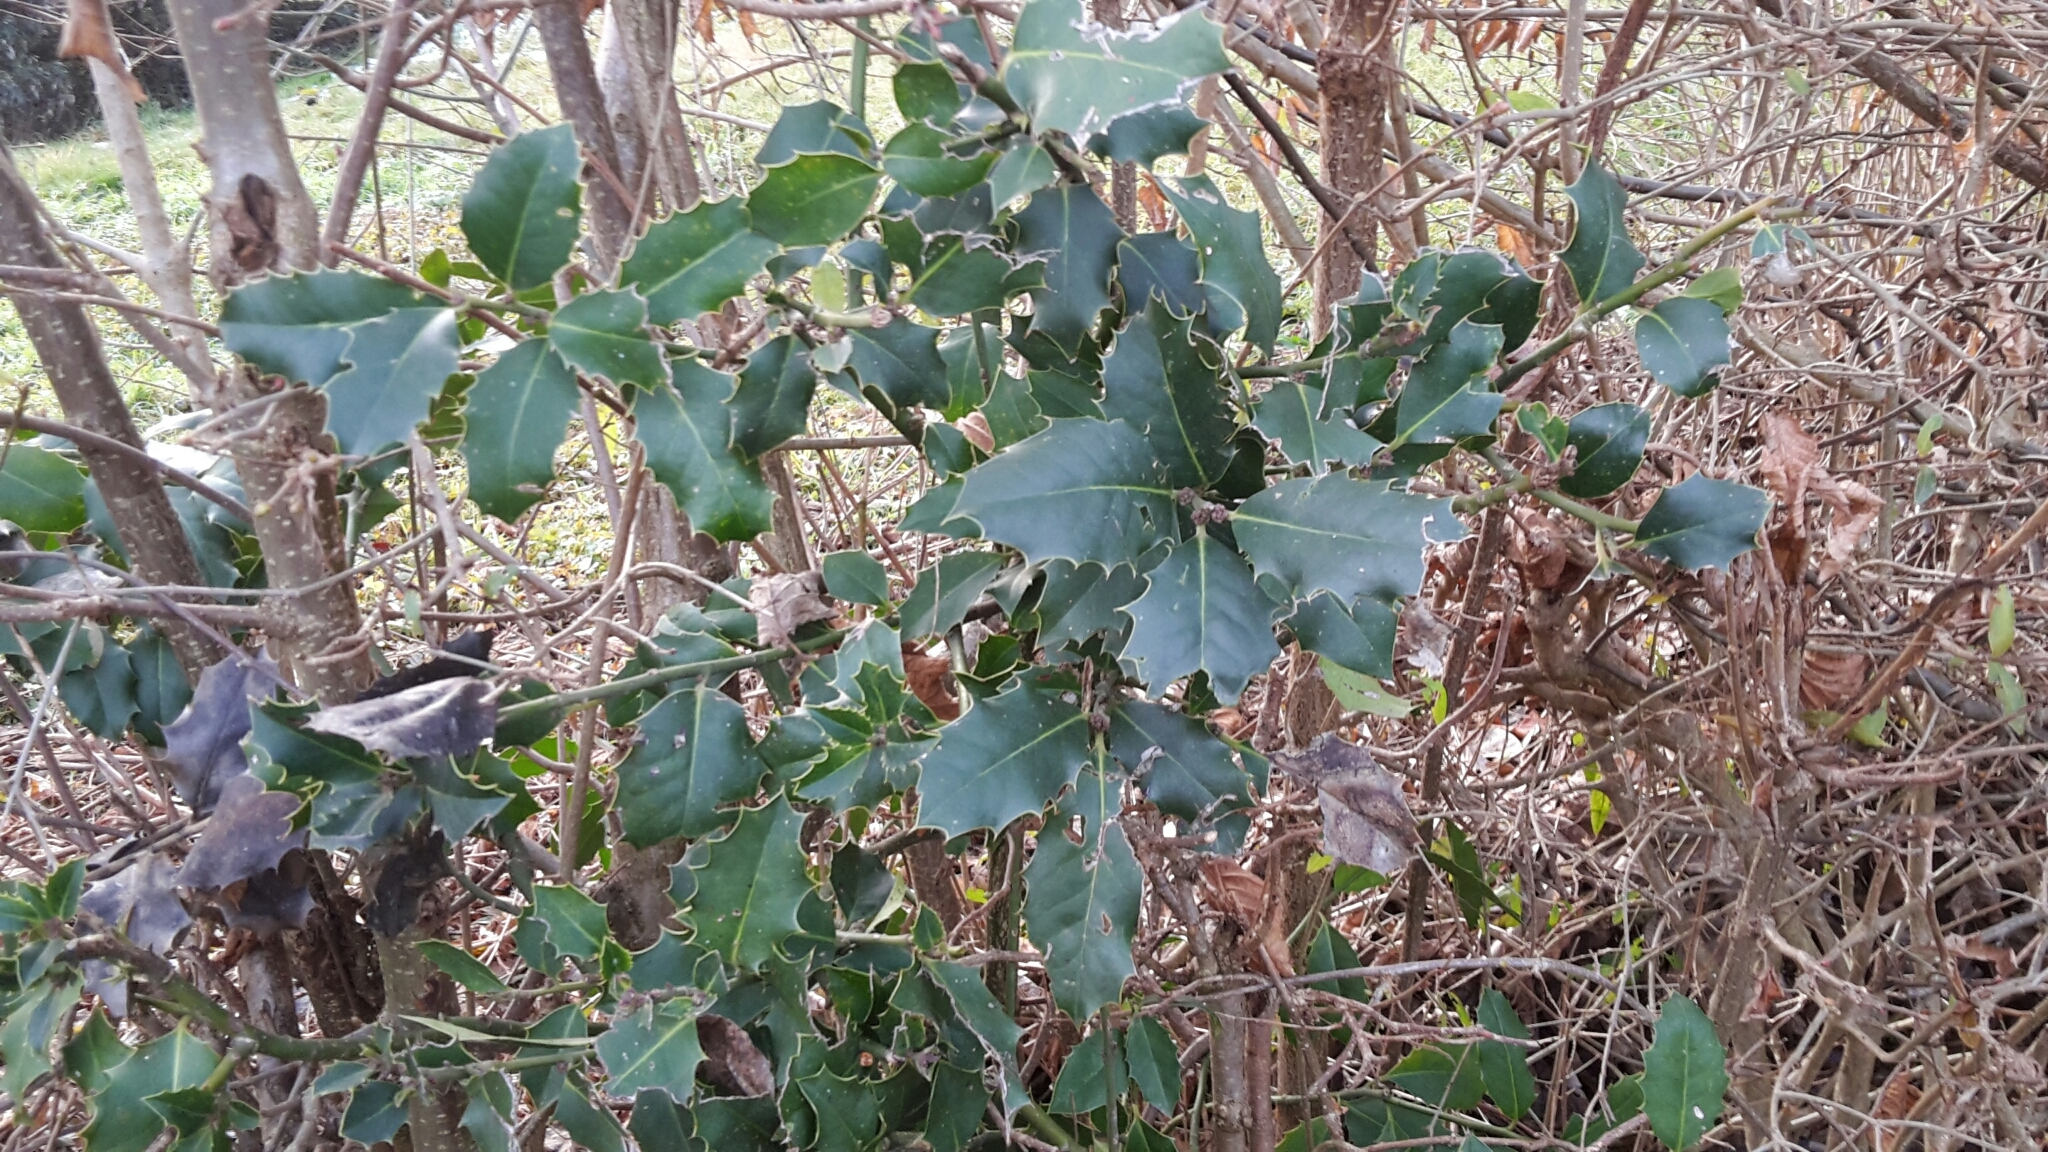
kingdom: Plantae
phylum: Tracheophyta
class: Magnoliopsida
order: Aquifoliales
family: Aquifoliaceae
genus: Ilex
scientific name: Ilex aquifolium
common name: English holly
